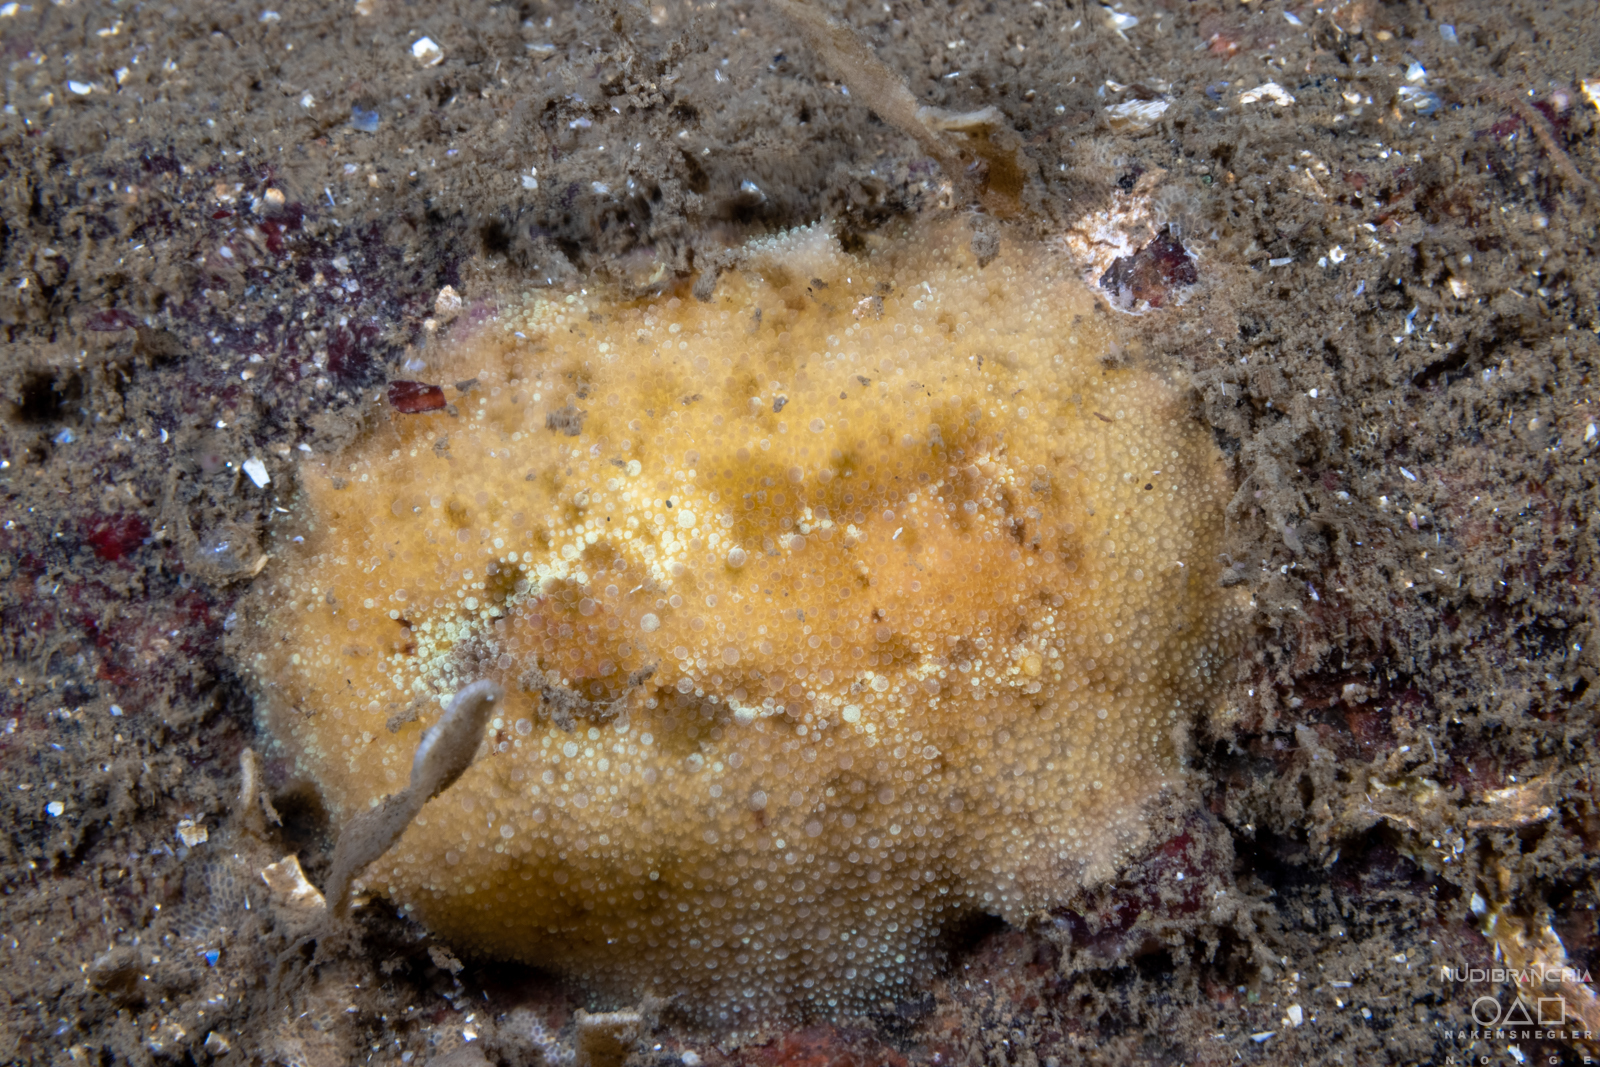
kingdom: Animalia
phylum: Mollusca
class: Gastropoda
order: Nudibranchia
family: Dorididae
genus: Doris
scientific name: Doris pseudoargus
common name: Sea lemon
